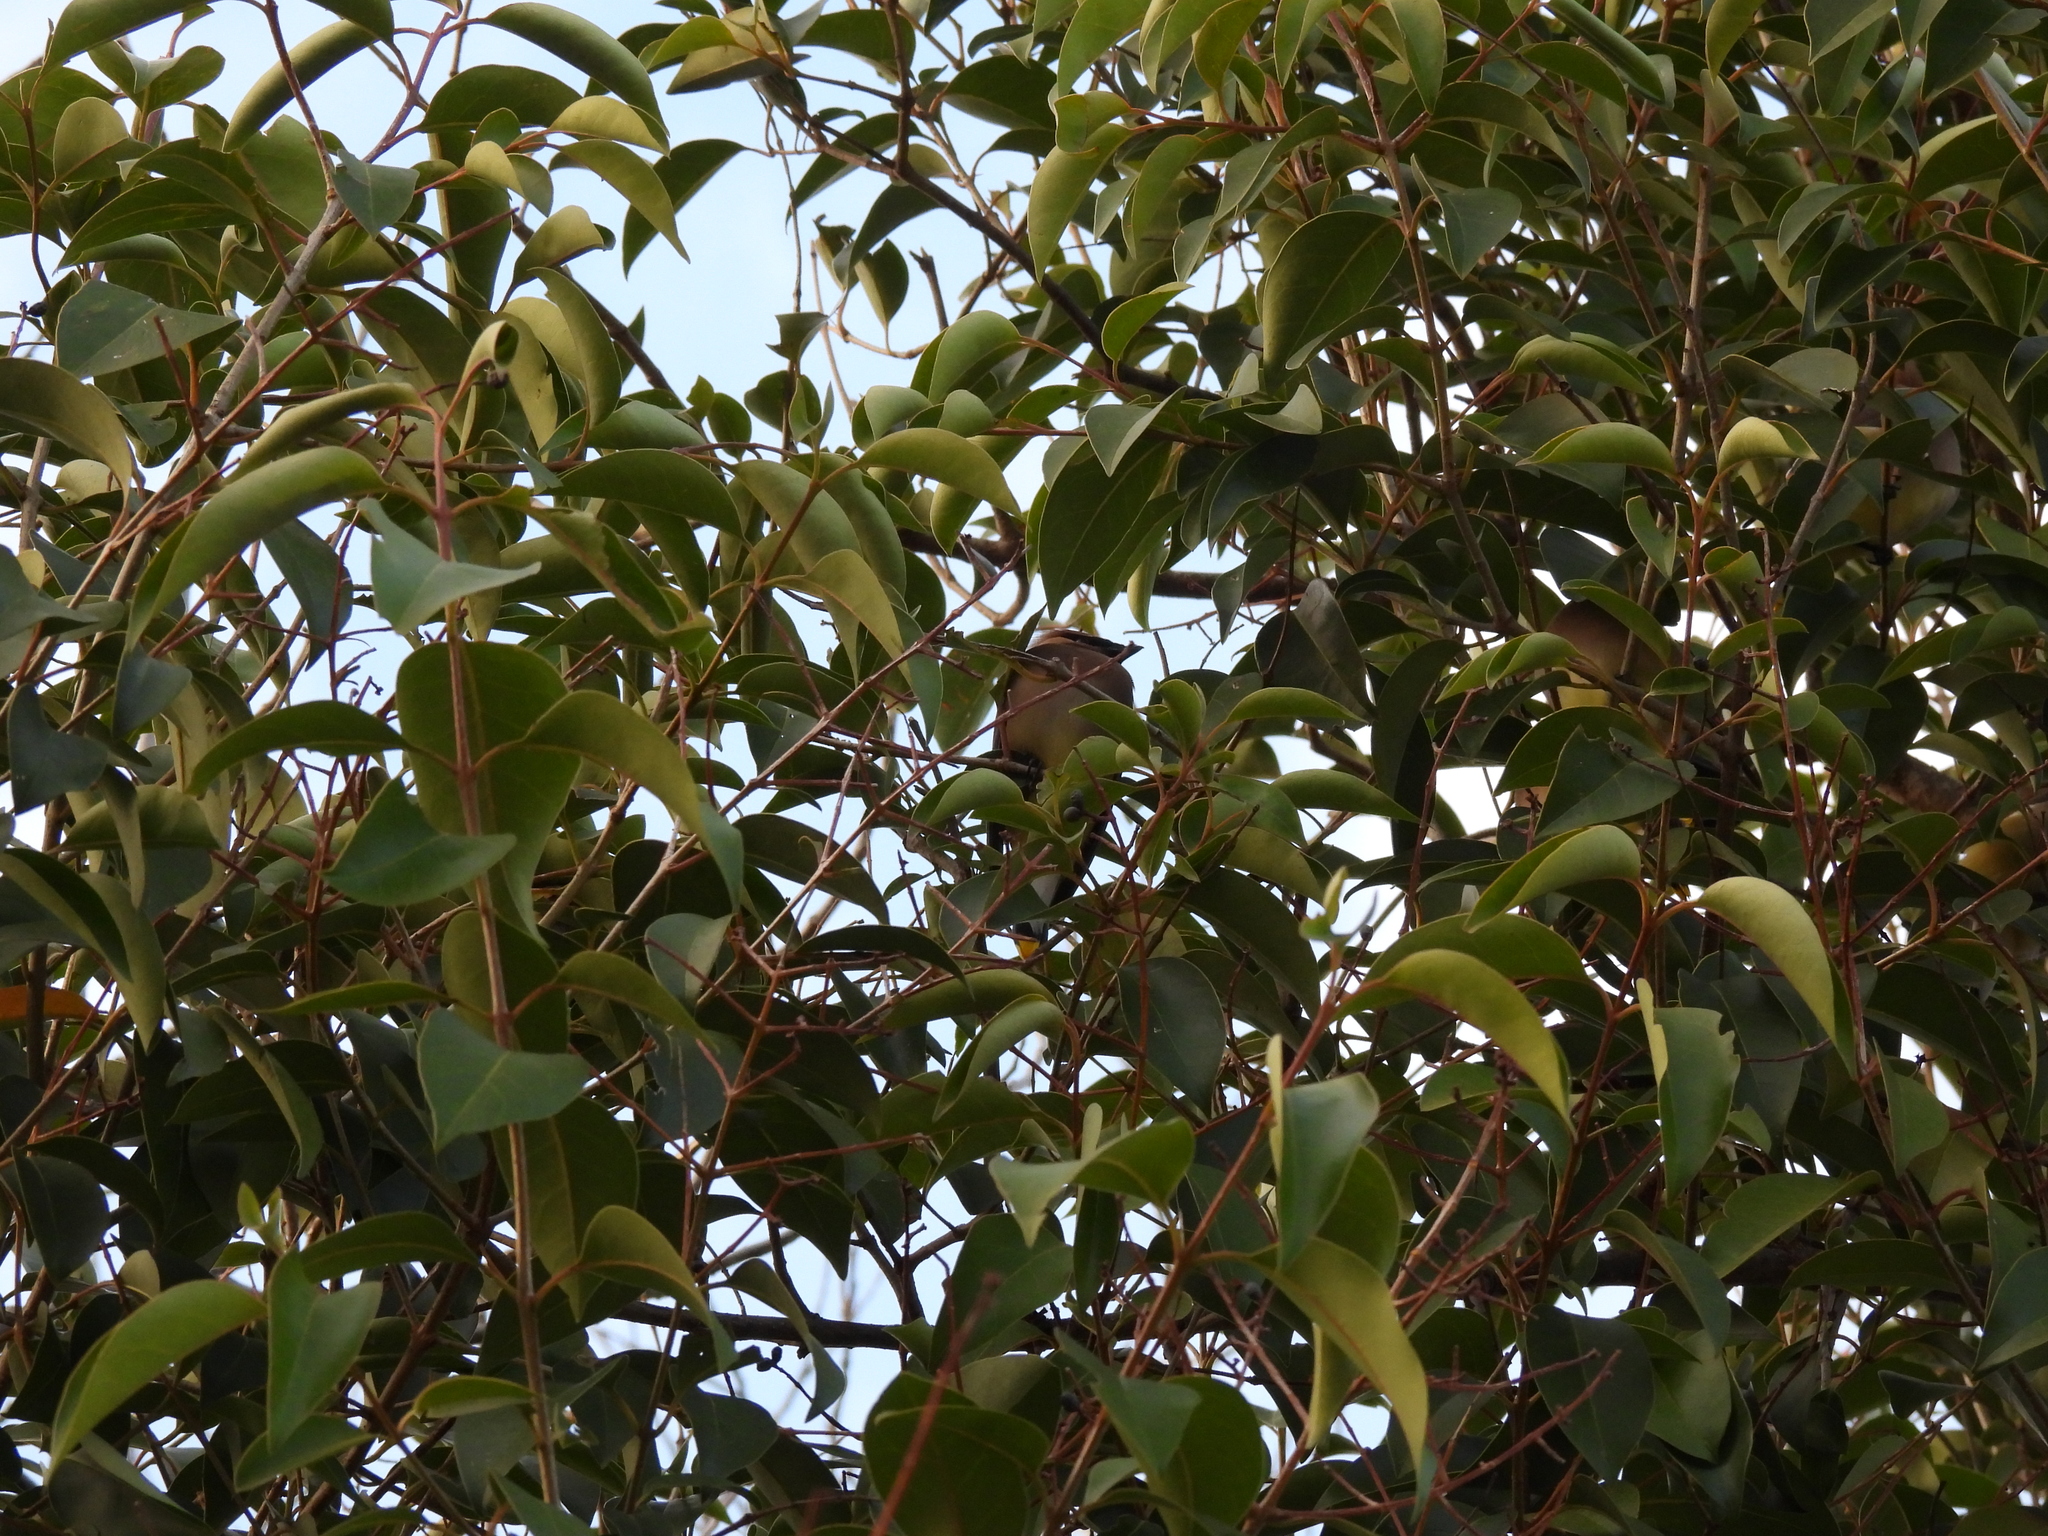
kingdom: Animalia
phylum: Chordata
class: Aves
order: Passeriformes
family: Bombycillidae
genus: Bombycilla
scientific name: Bombycilla cedrorum
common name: Cedar waxwing
